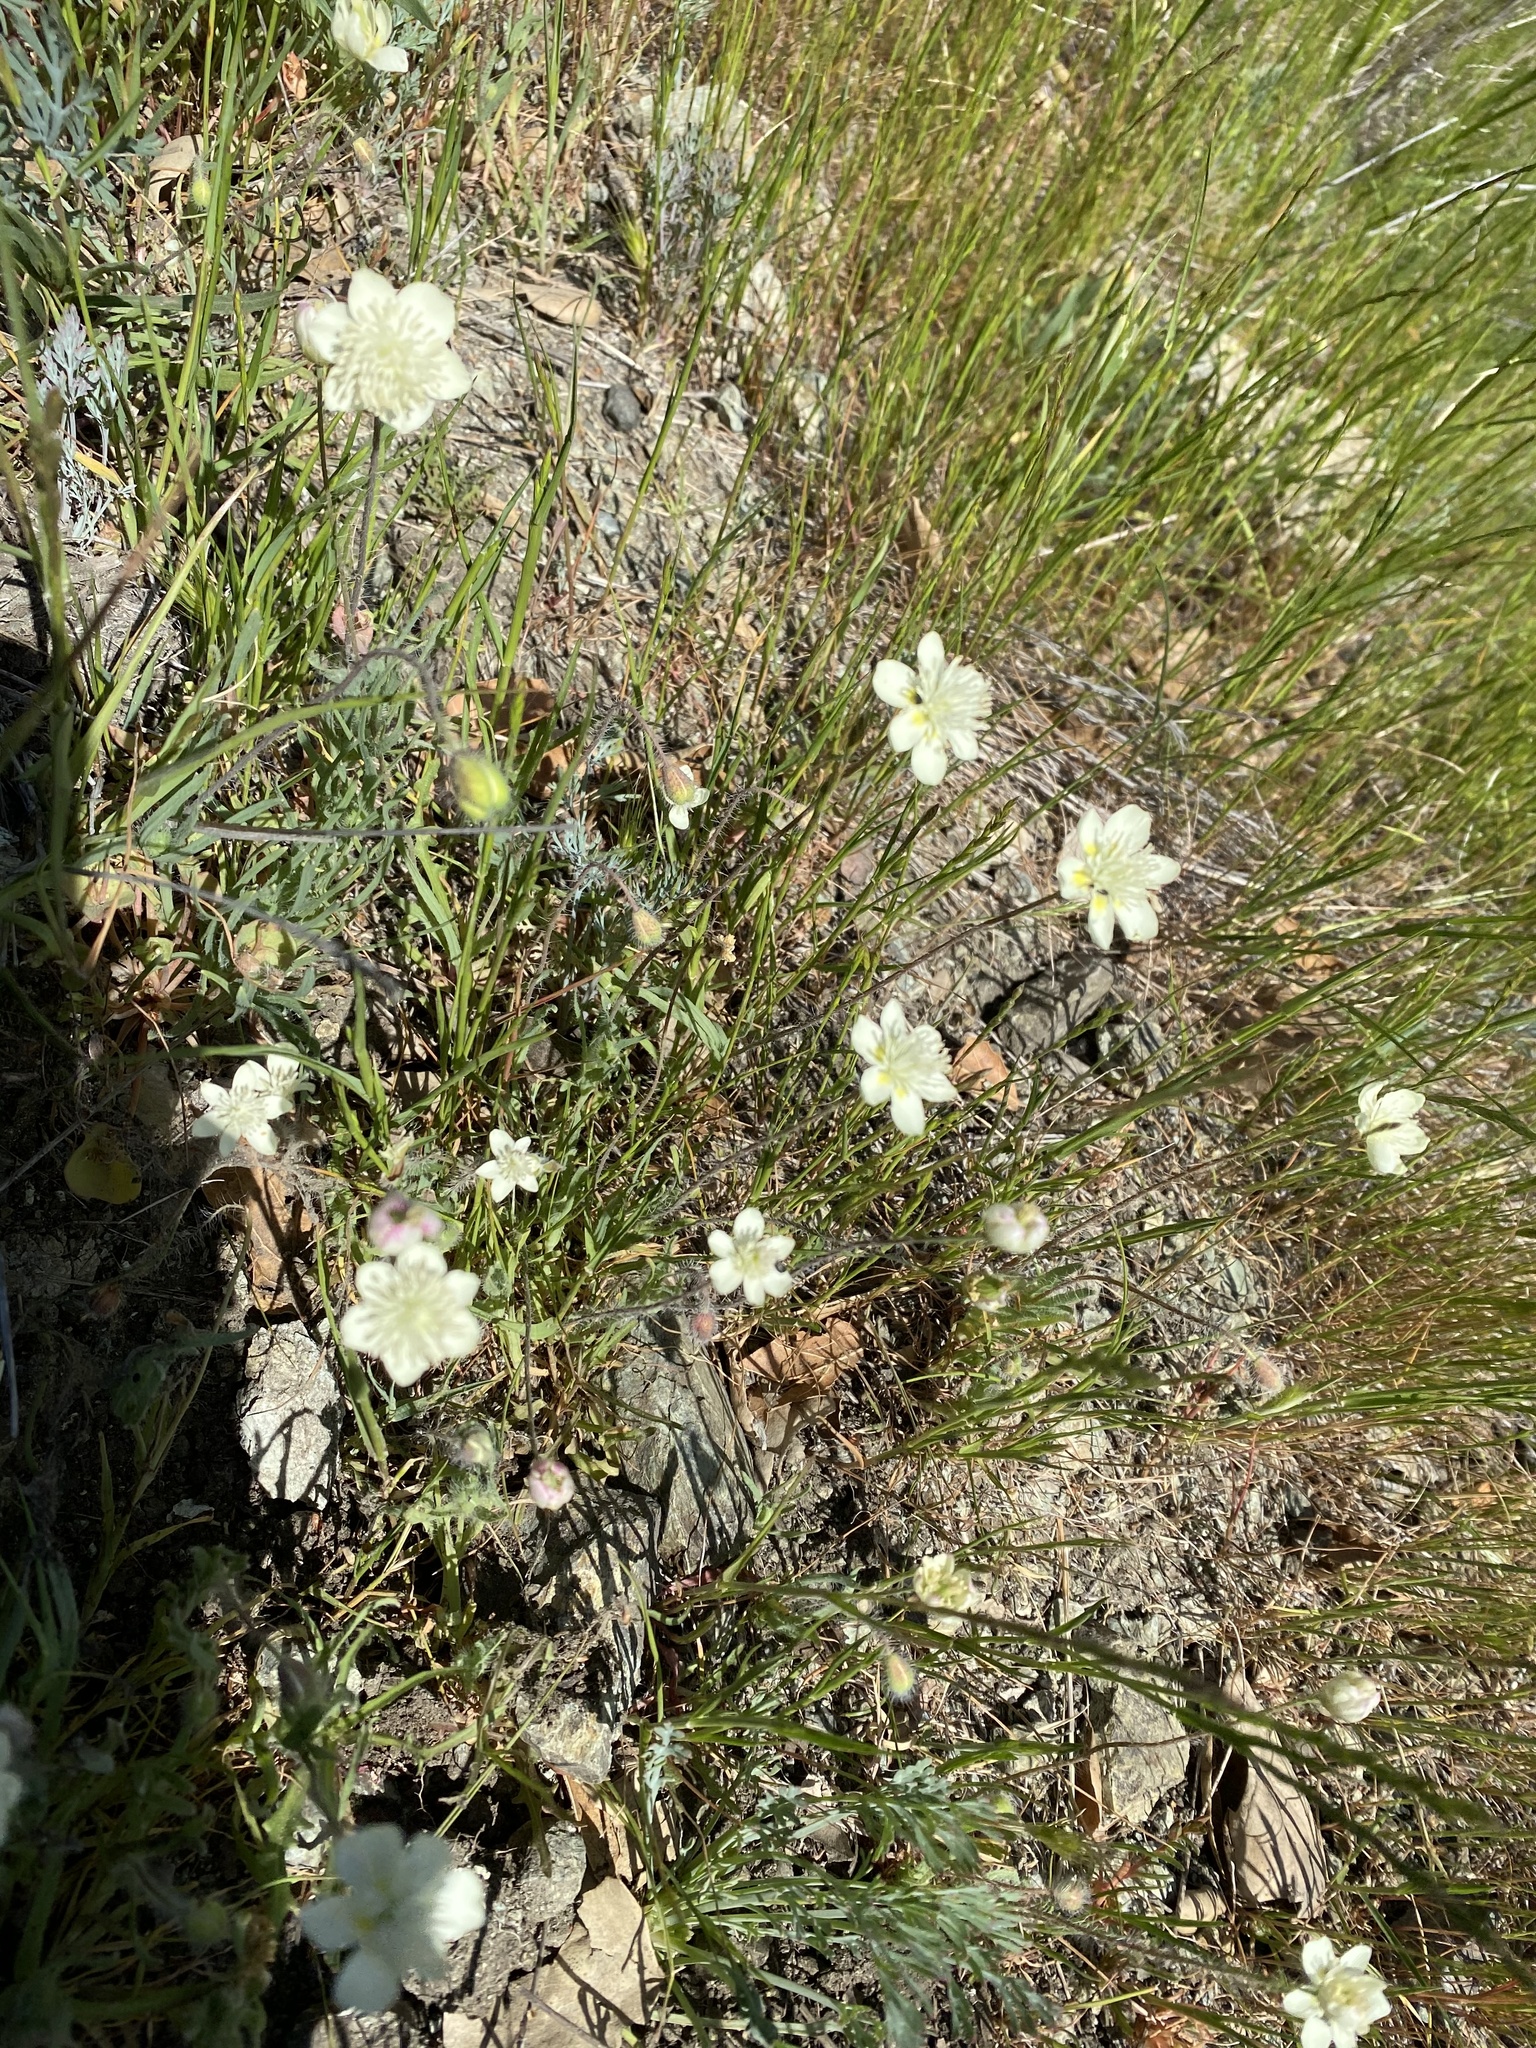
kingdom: Plantae
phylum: Tracheophyta
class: Magnoliopsida
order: Ranunculales
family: Papaveraceae
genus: Platystemon
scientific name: Platystemon californicus
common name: Cream-cups
